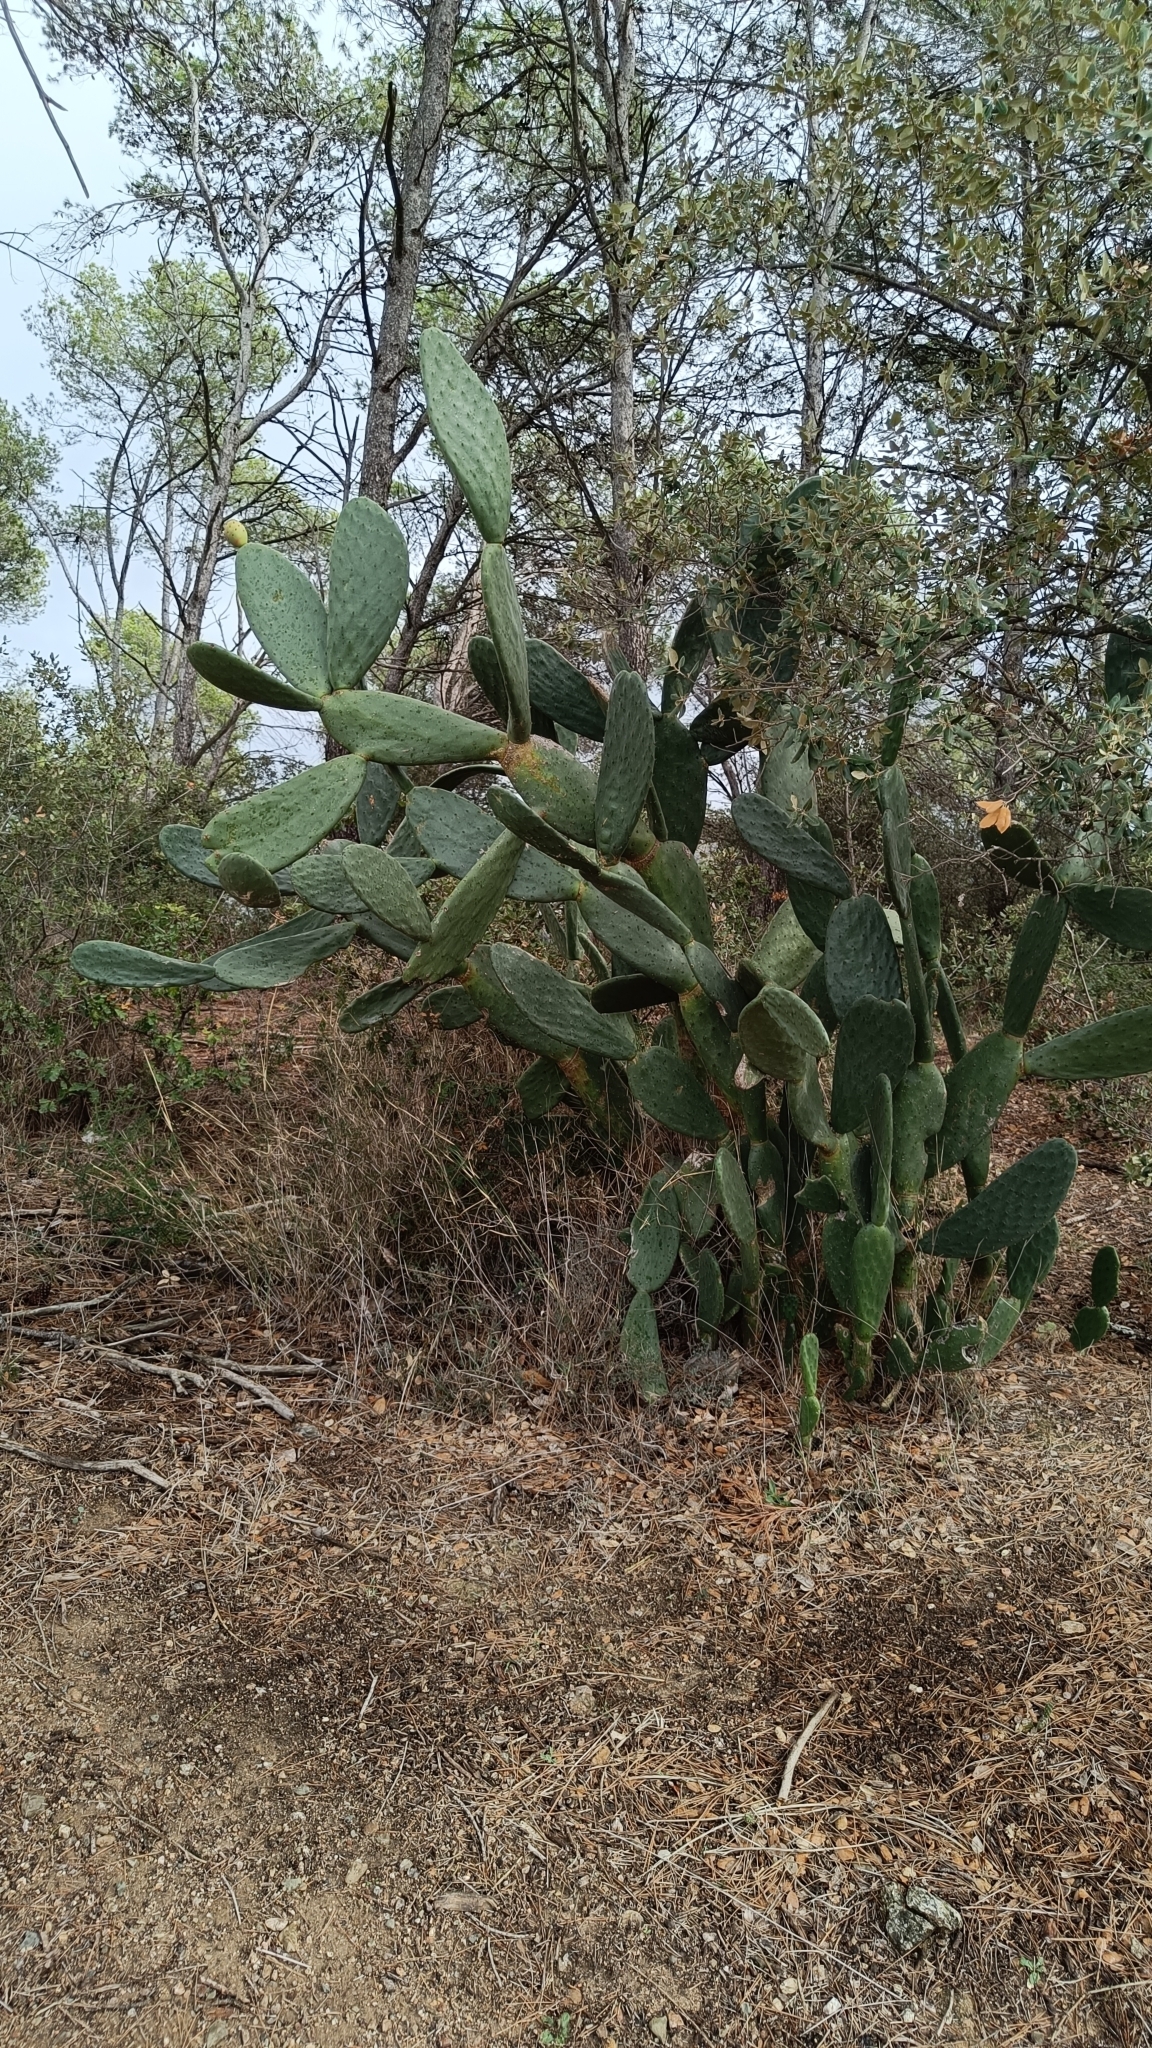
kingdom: Plantae
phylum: Tracheophyta
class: Magnoliopsida
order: Caryophyllales
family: Cactaceae
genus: Opuntia
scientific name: Opuntia ficus-indica
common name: Barbary fig
